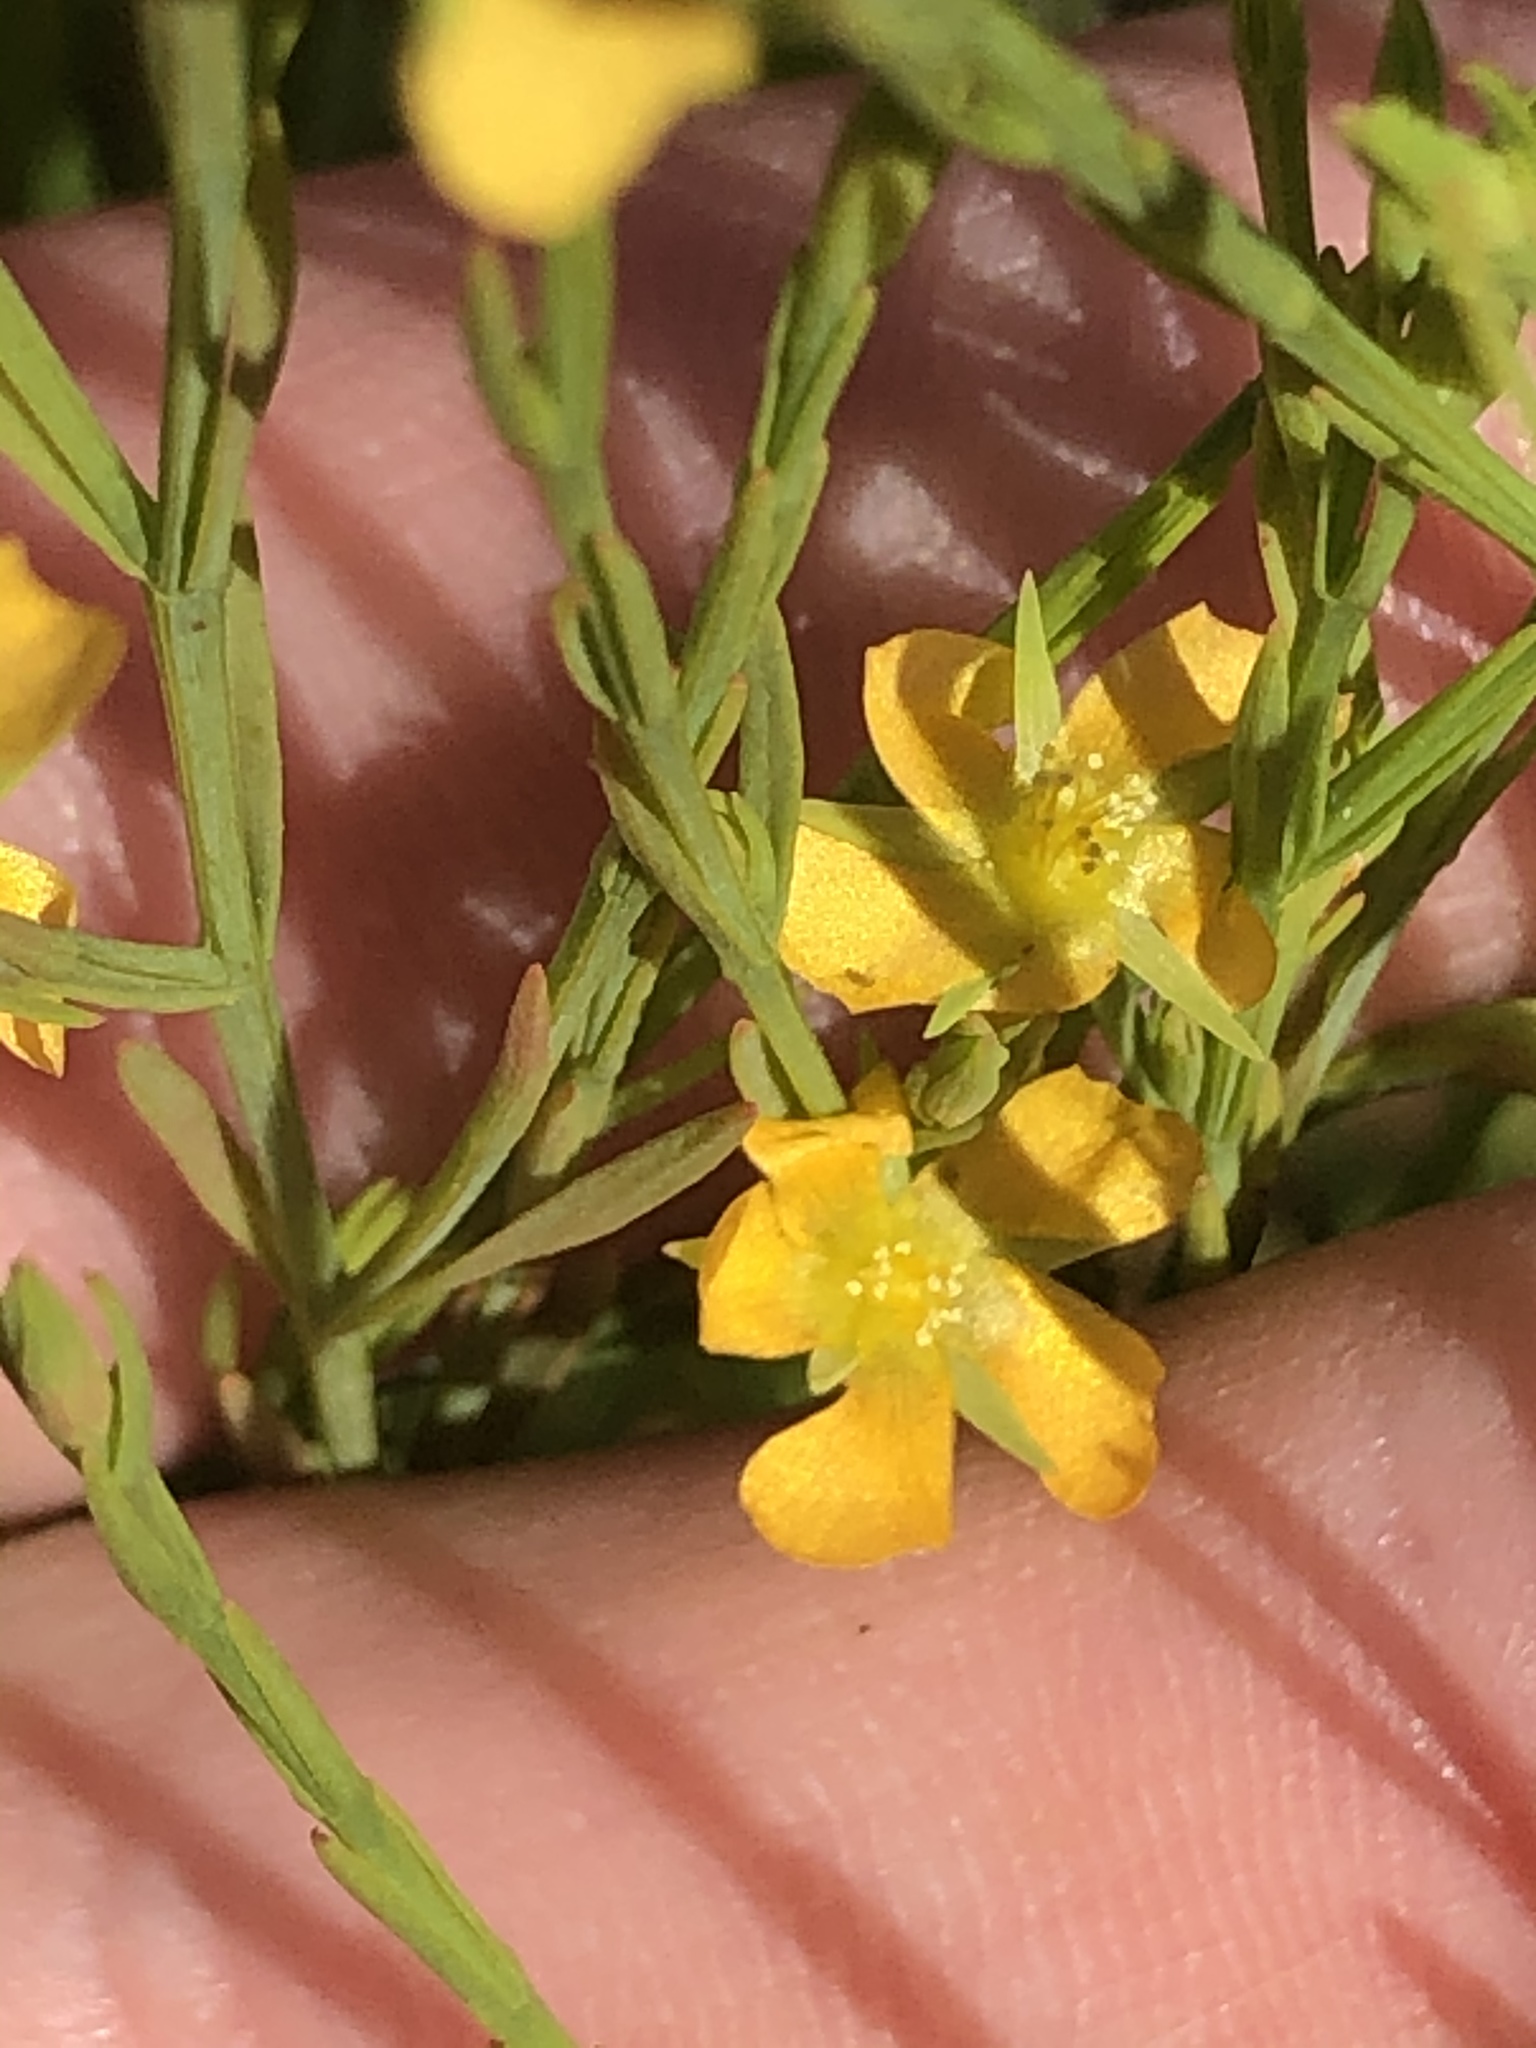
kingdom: Plantae
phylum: Tracheophyta
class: Magnoliopsida
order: Malpighiales
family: Hypericaceae
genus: Hypericum
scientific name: Hypericum drummondii
